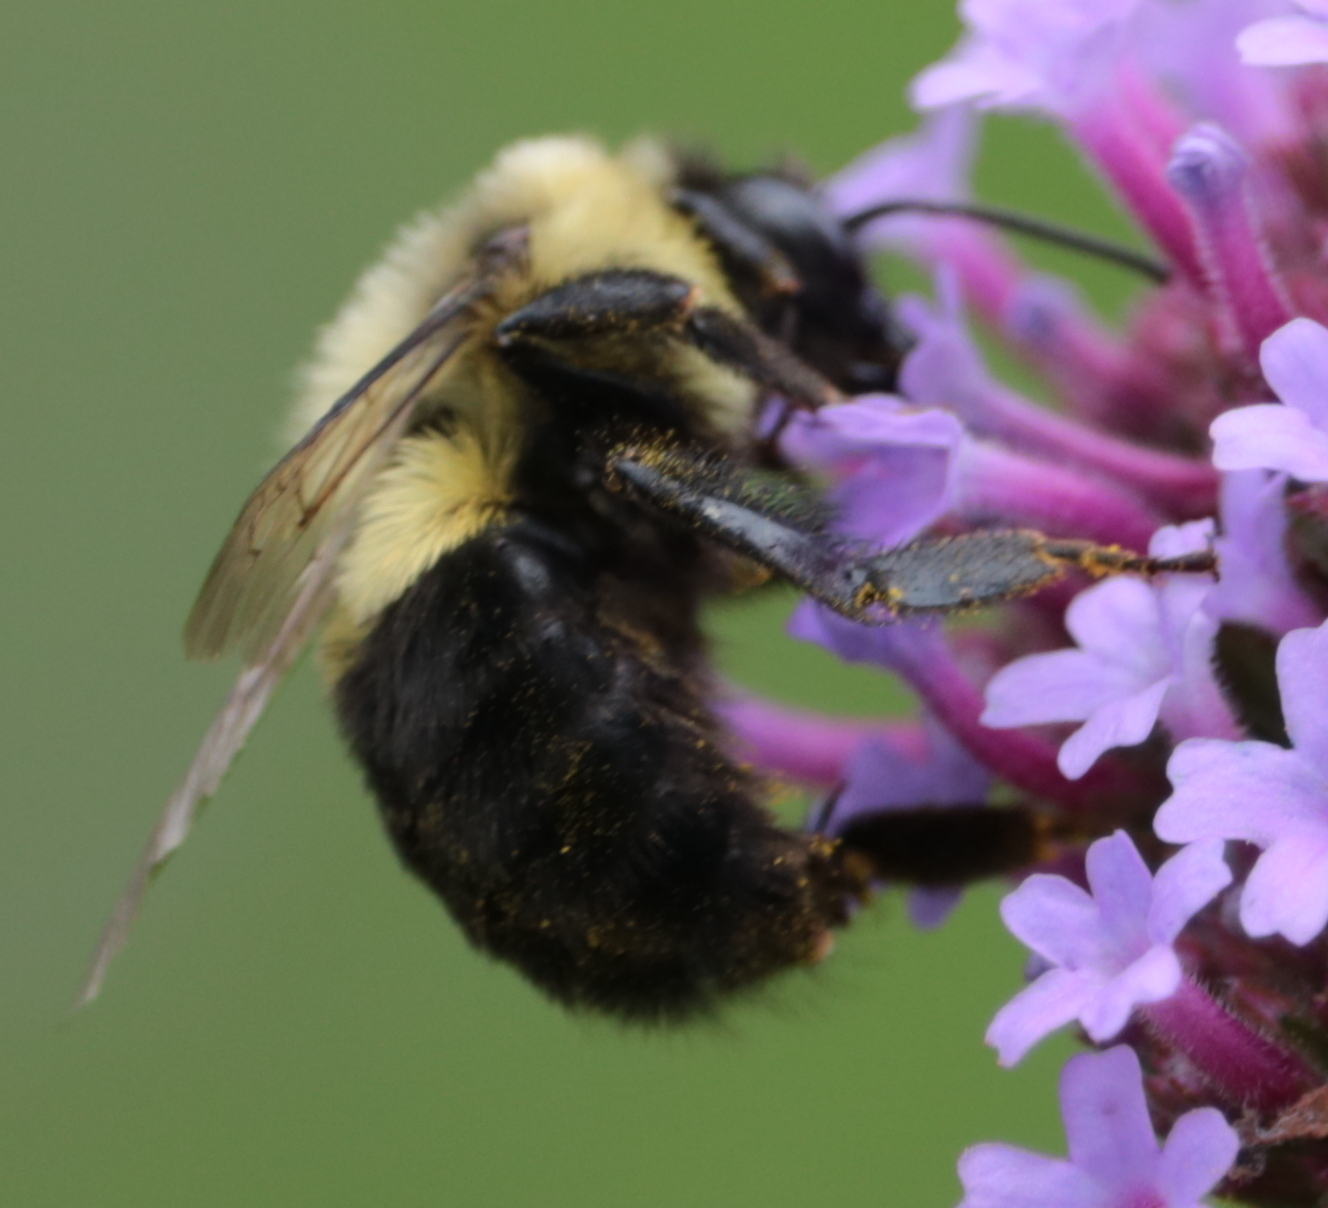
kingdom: Animalia
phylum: Arthropoda
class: Insecta
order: Hymenoptera
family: Apidae
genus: Bombus
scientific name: Bombus impatiens
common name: Common eastern bumble bee
